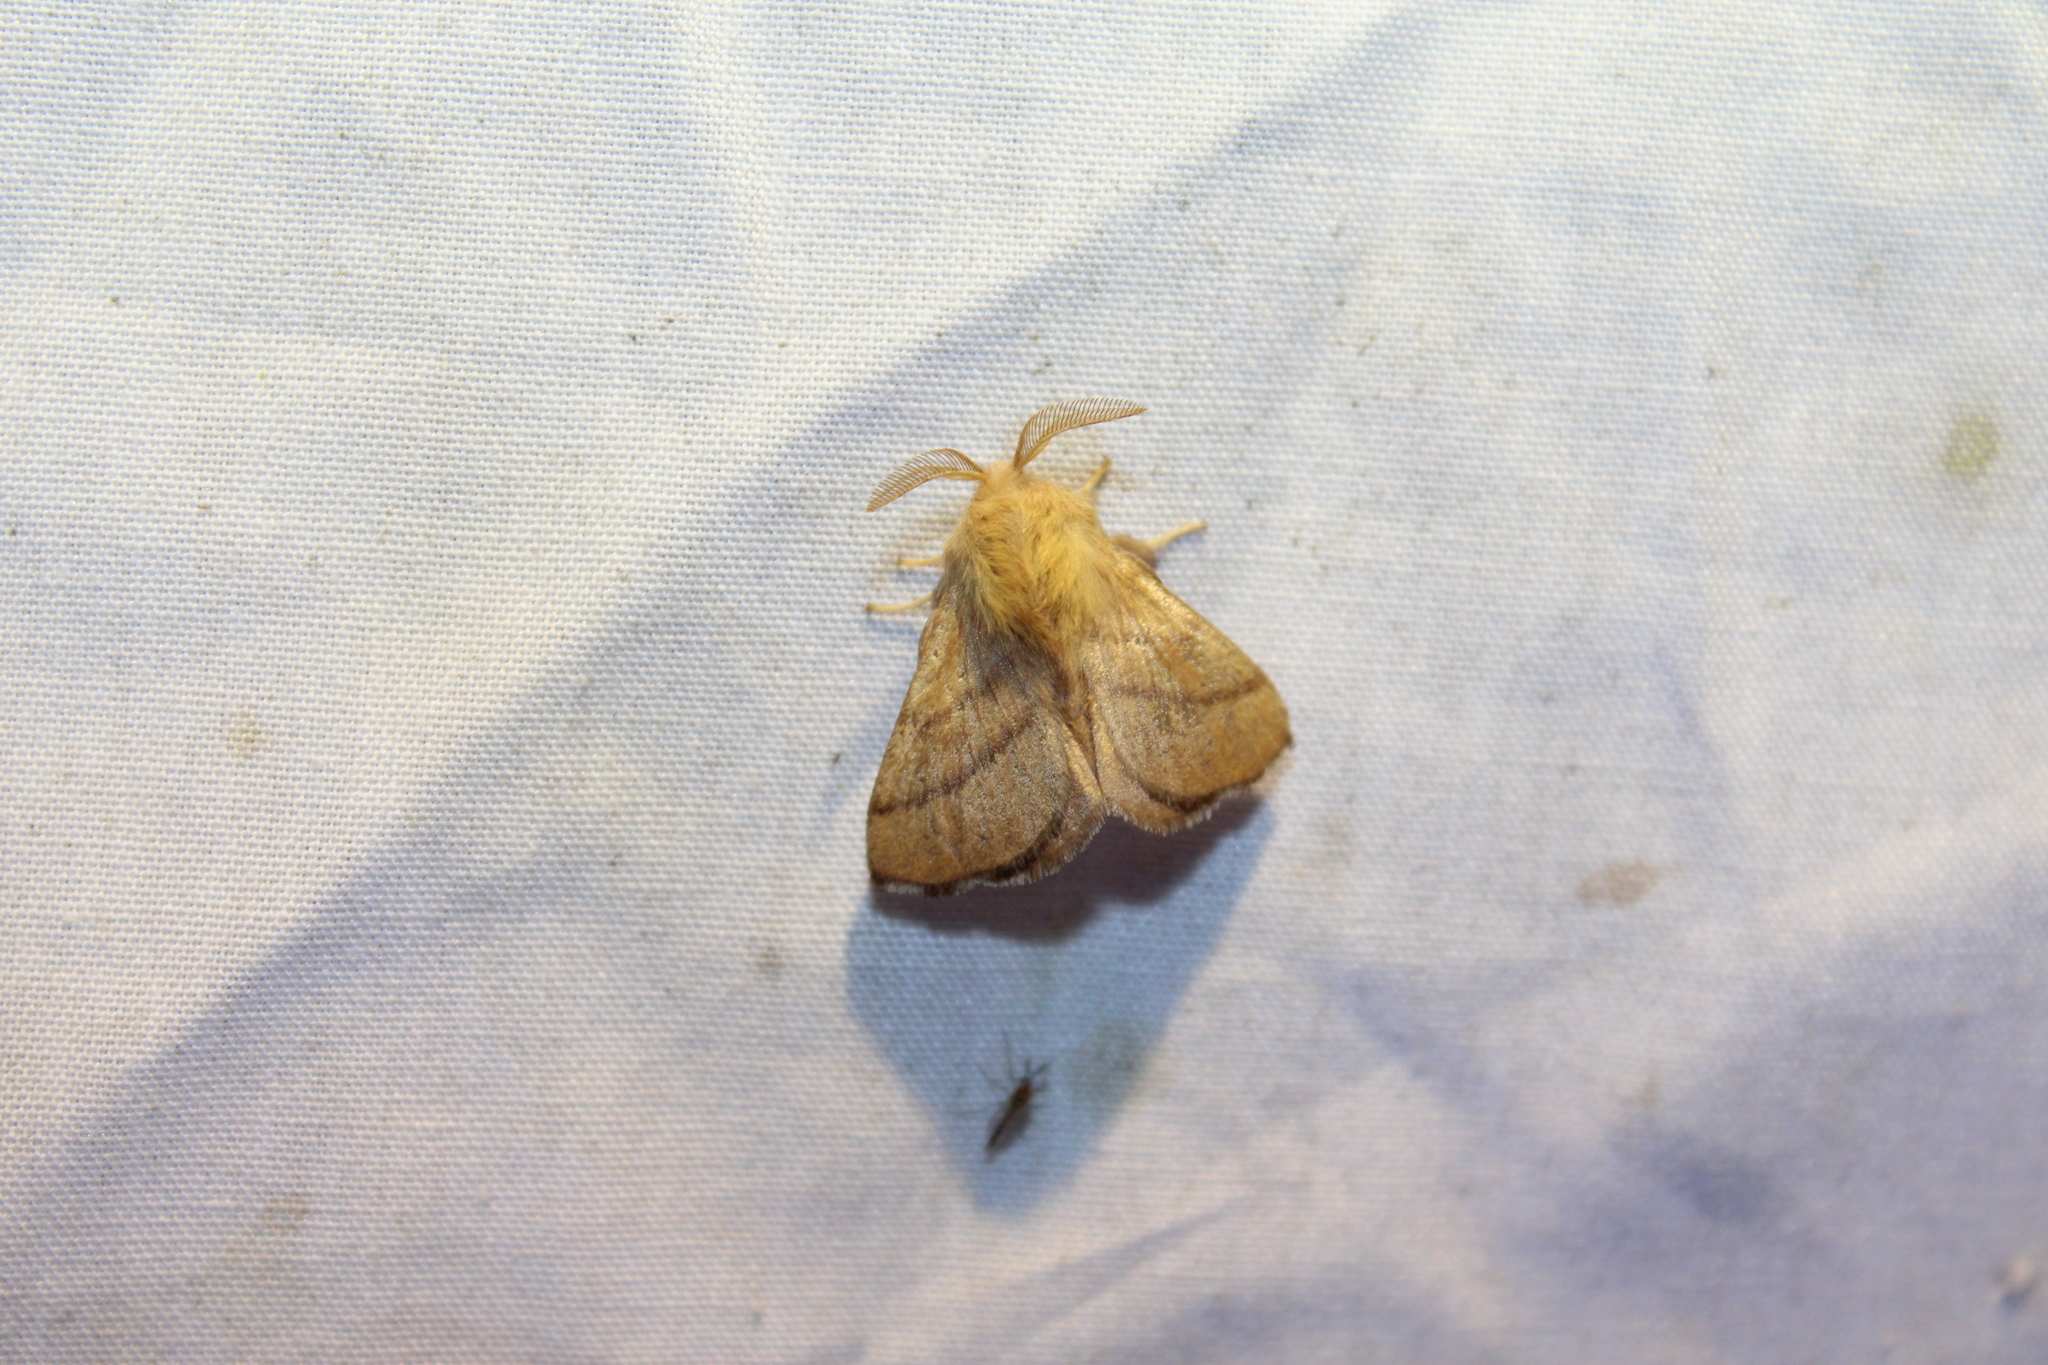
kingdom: Animalia
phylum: Arthropoda
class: Insecta
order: Lepidoptera
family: Lasiocampidae
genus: Malacosoma
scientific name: Malacosoma disstria
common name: Forest tent caterpillar
